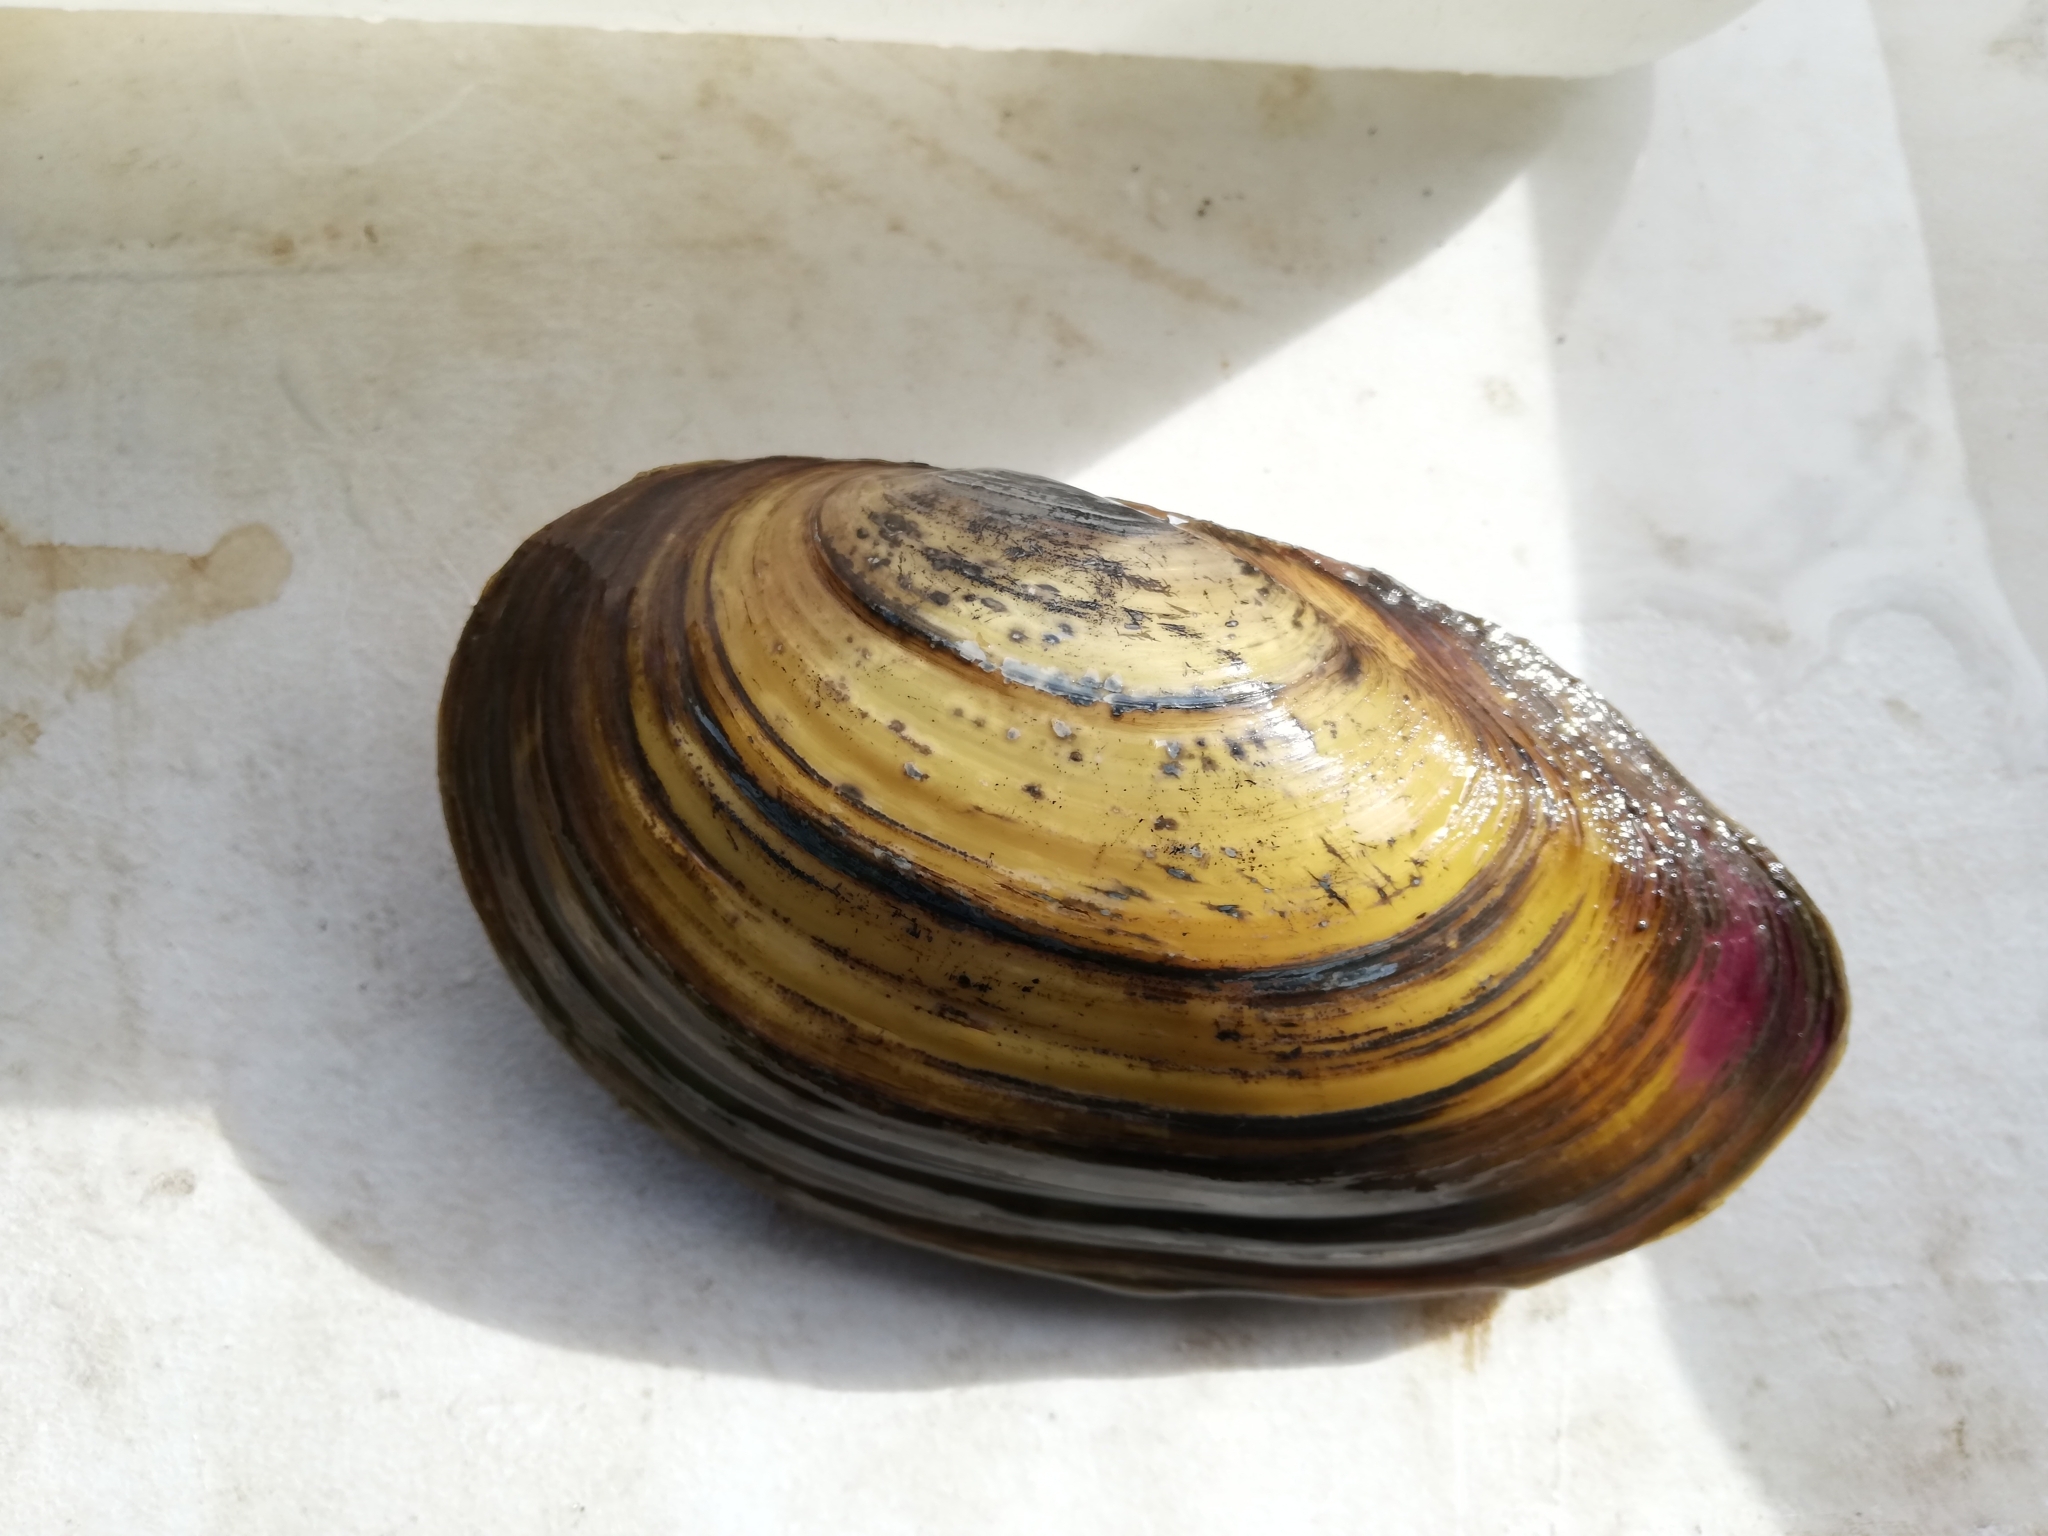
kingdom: Animalia
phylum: Mollusca
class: Bivalvia
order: Unionida
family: Unionidae
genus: Anodonta
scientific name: Anodonta cygnea
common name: Swan mussel
